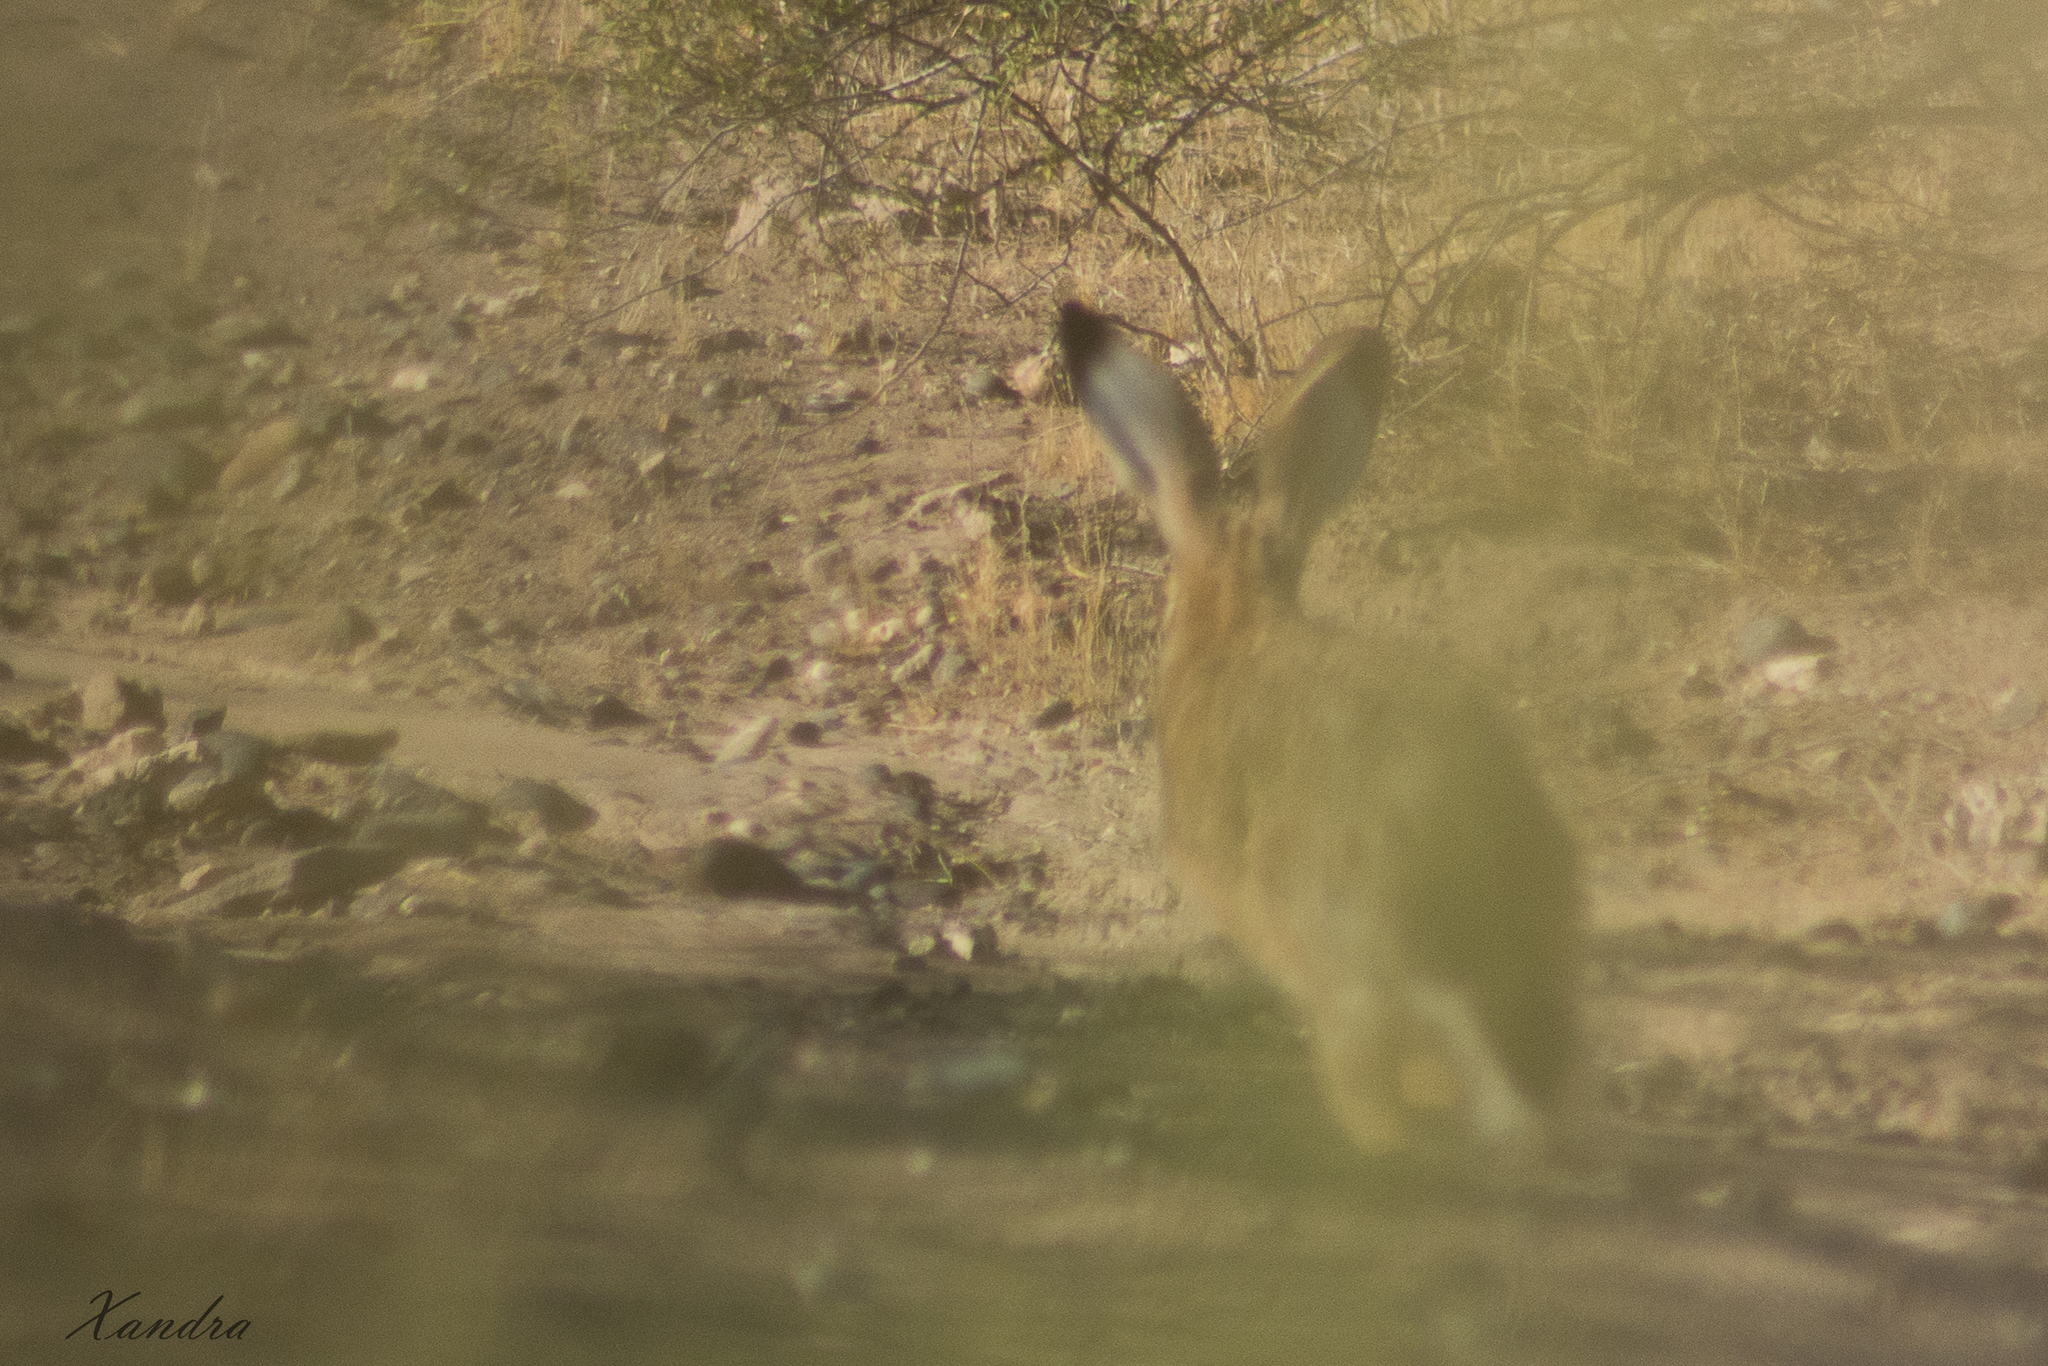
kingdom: Animalia
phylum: Chordata
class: Mammalia
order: Lagomorpha
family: Leporidae
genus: Lepus
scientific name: Lepus europaeus
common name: European hare
